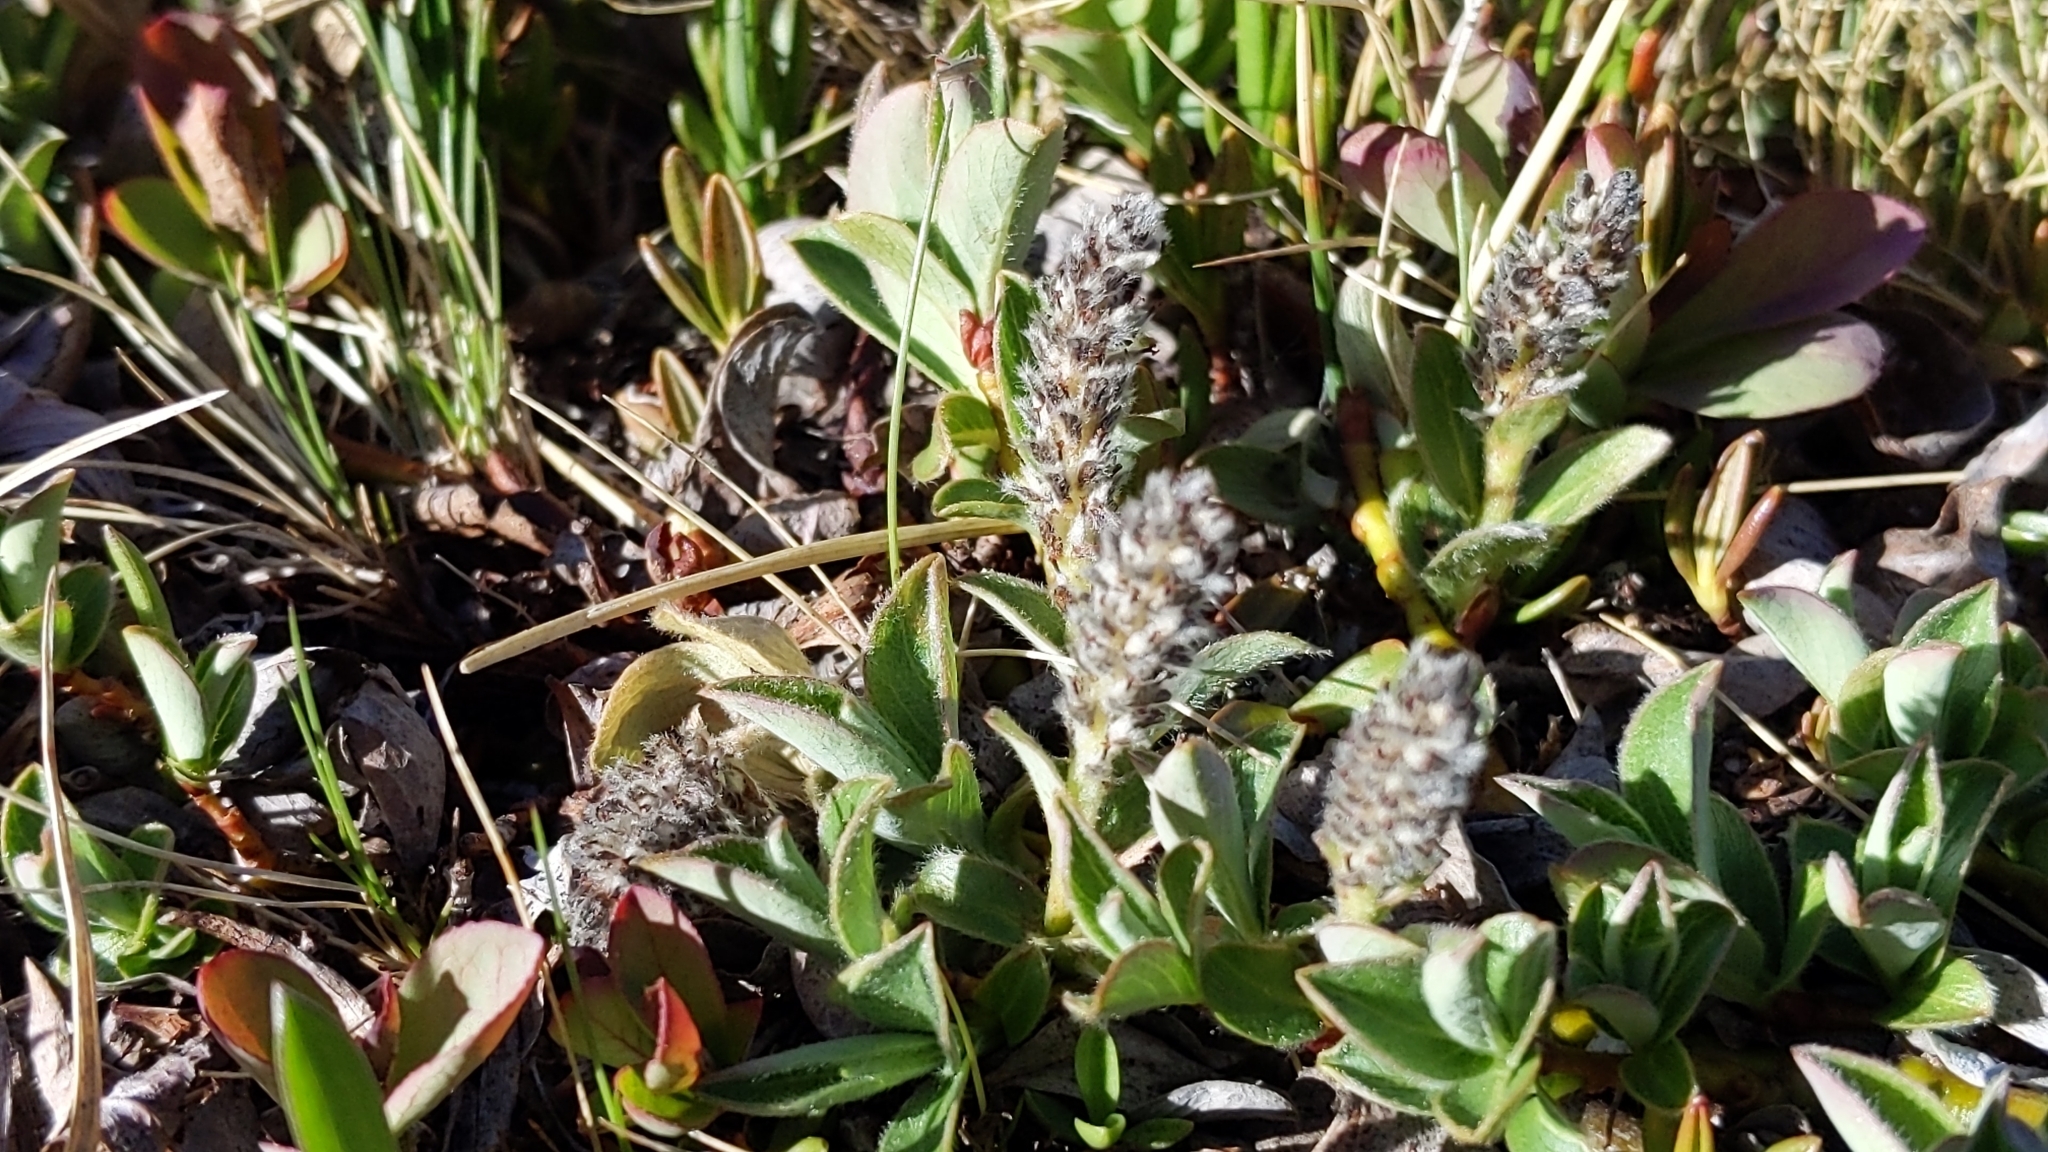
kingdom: Plantae
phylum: Tracheophyta
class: Magnoliopsida
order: Malpighiales
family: Salicaceae
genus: Salix
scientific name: Salix petrophila
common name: Rocky mountain willow
